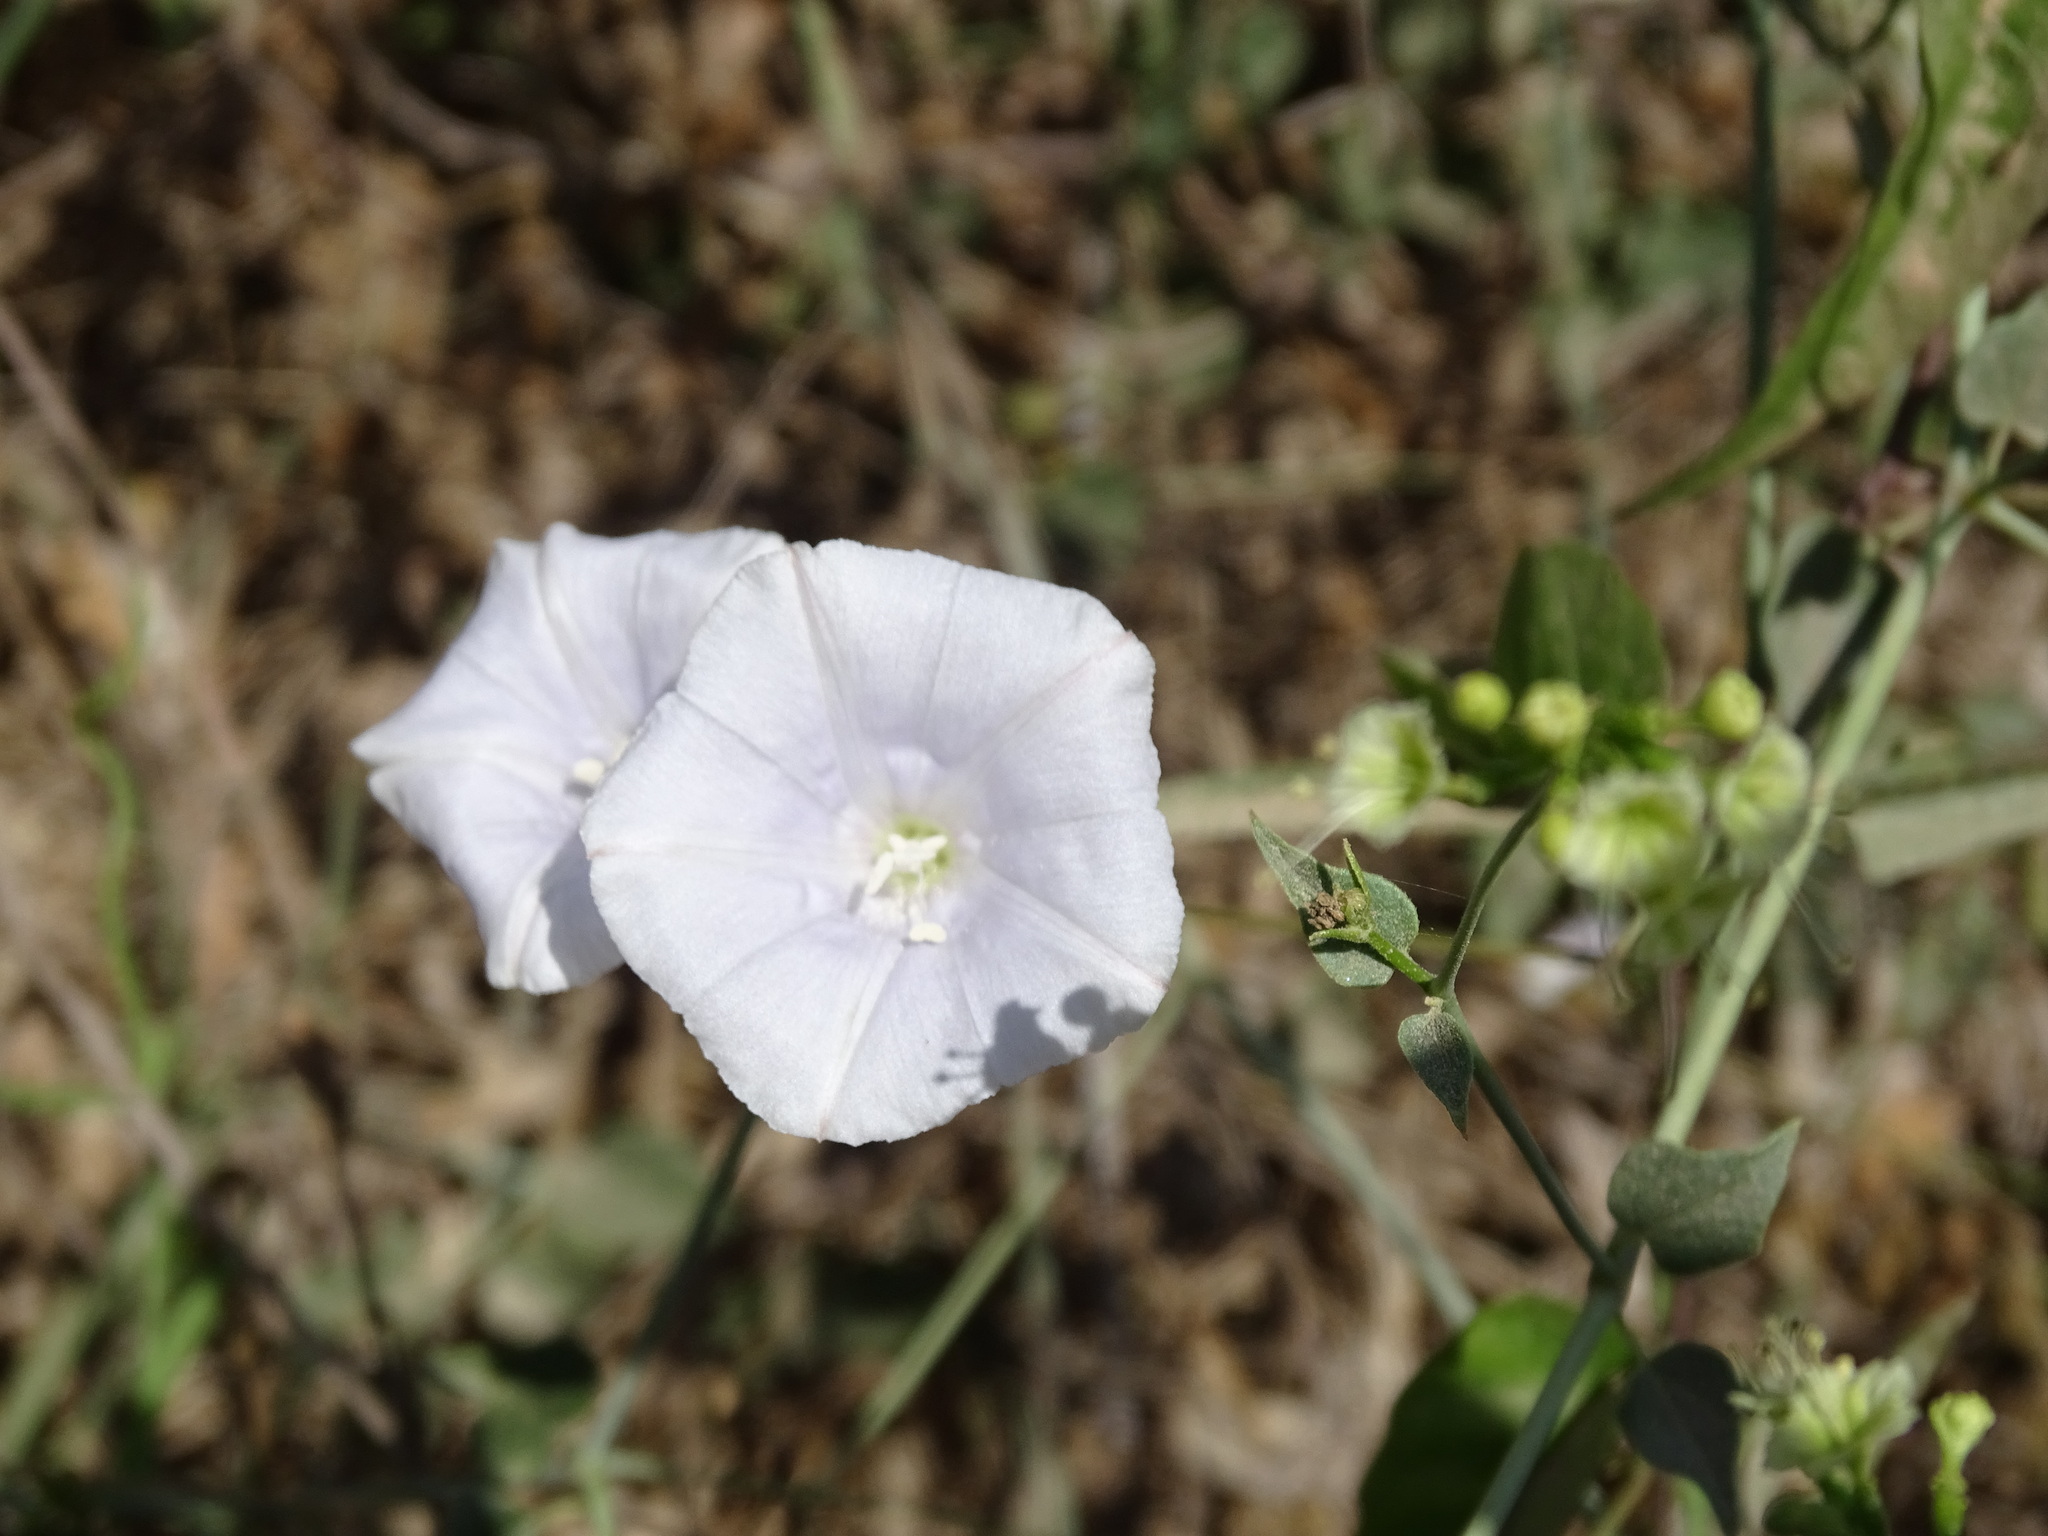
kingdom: Plantae
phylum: Tracheophyta
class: Magnoliopsida
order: Solanales
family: Convolvulaceae
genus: Jacquemontia
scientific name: Jacquemontia pringlei
